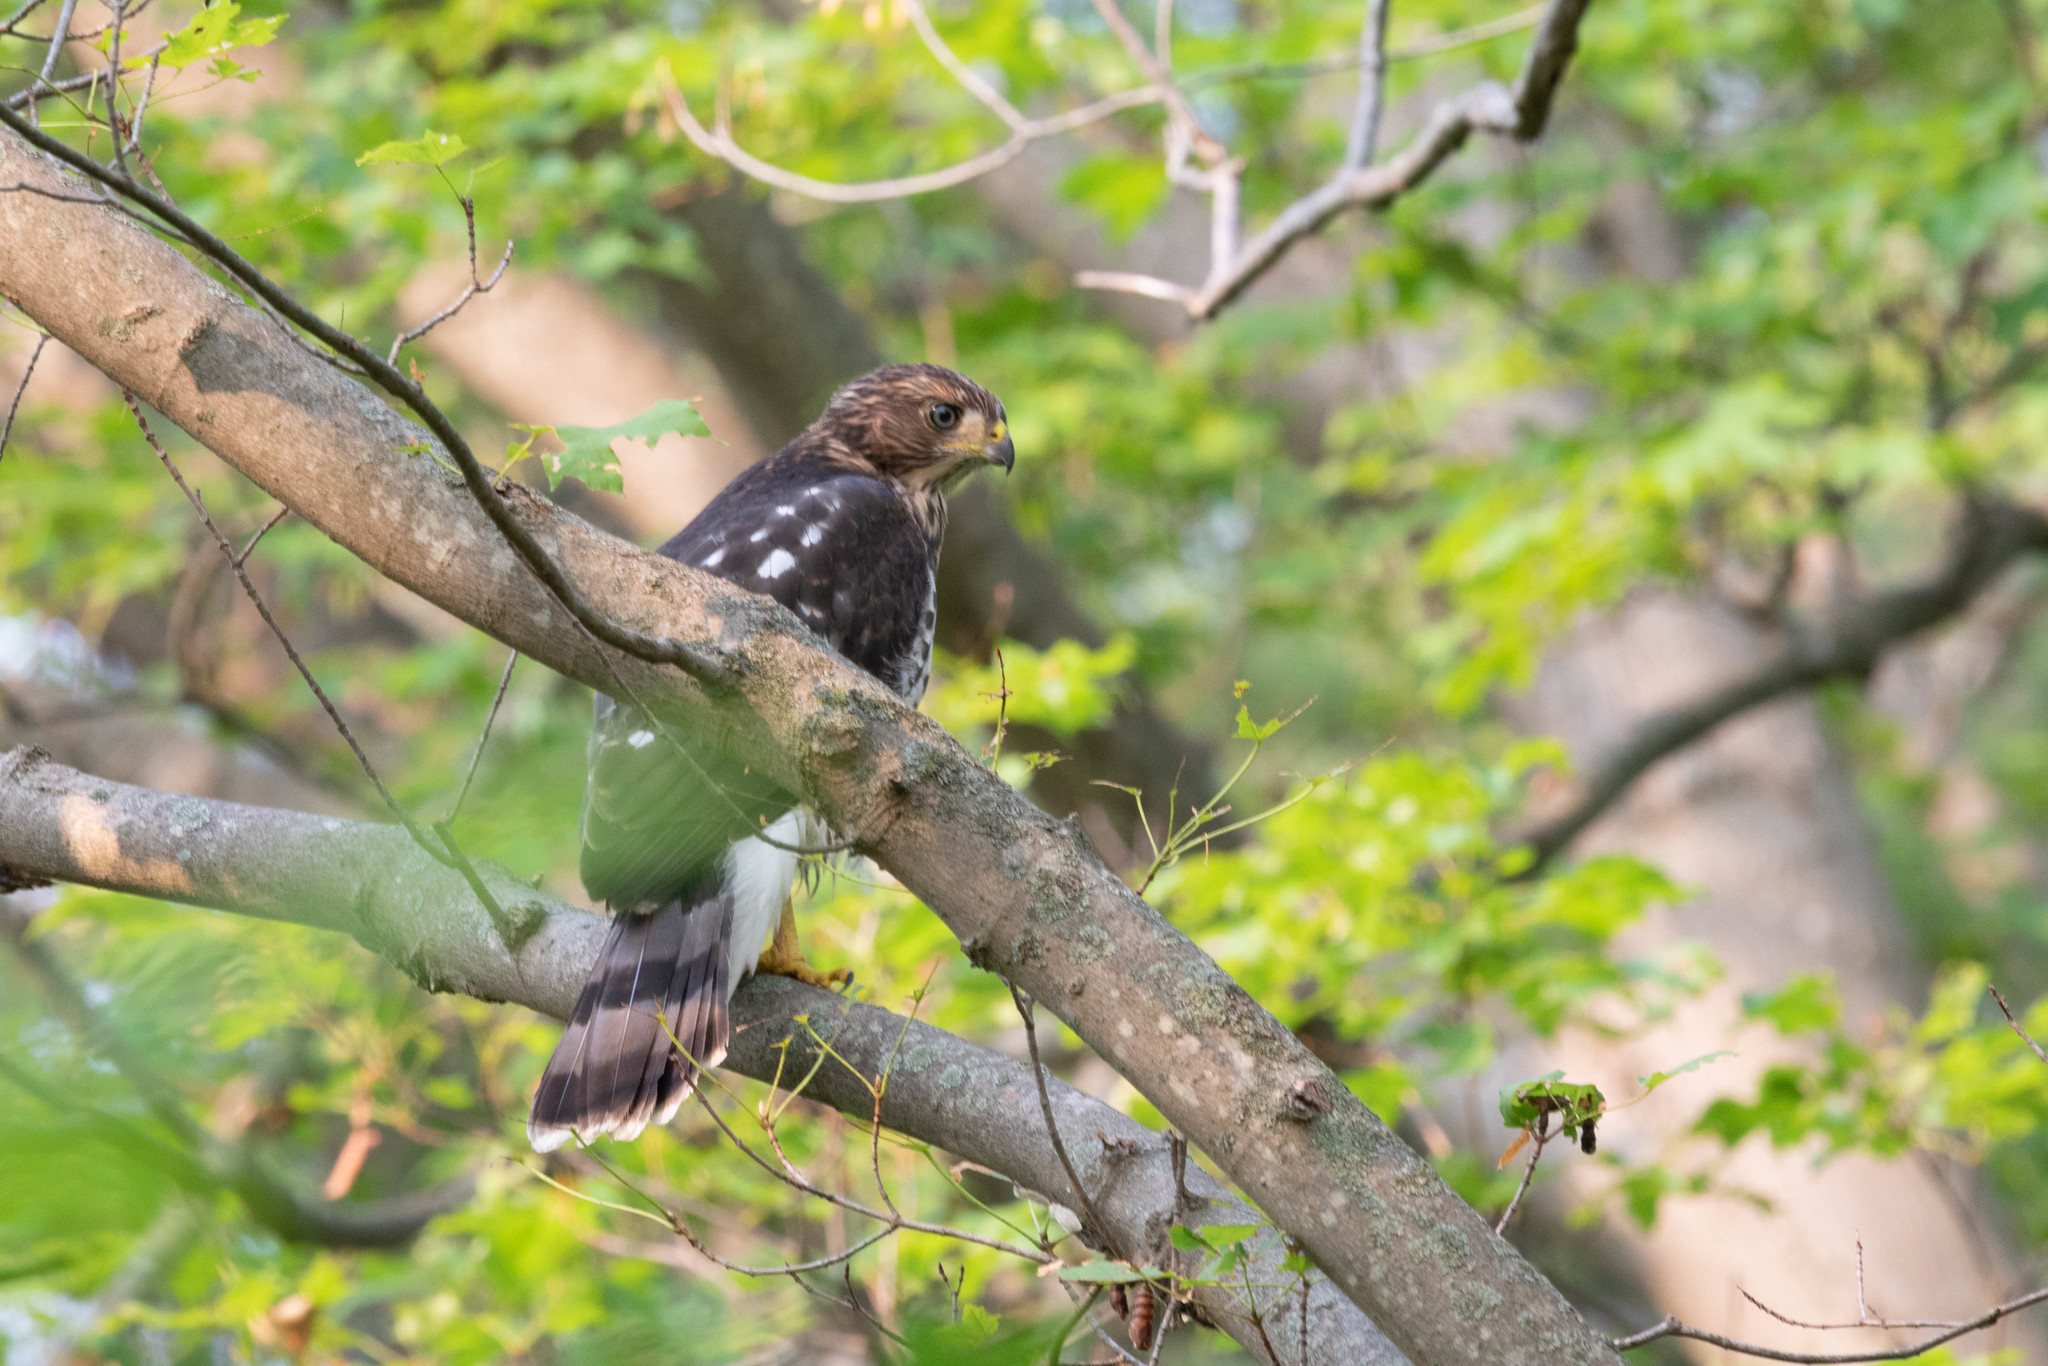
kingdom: Animalia
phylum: Chordata
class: Aves
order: Accipitriformes
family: Accipitridae
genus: Accipiter
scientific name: Accipiter cooperii
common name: Cooper's hawk
